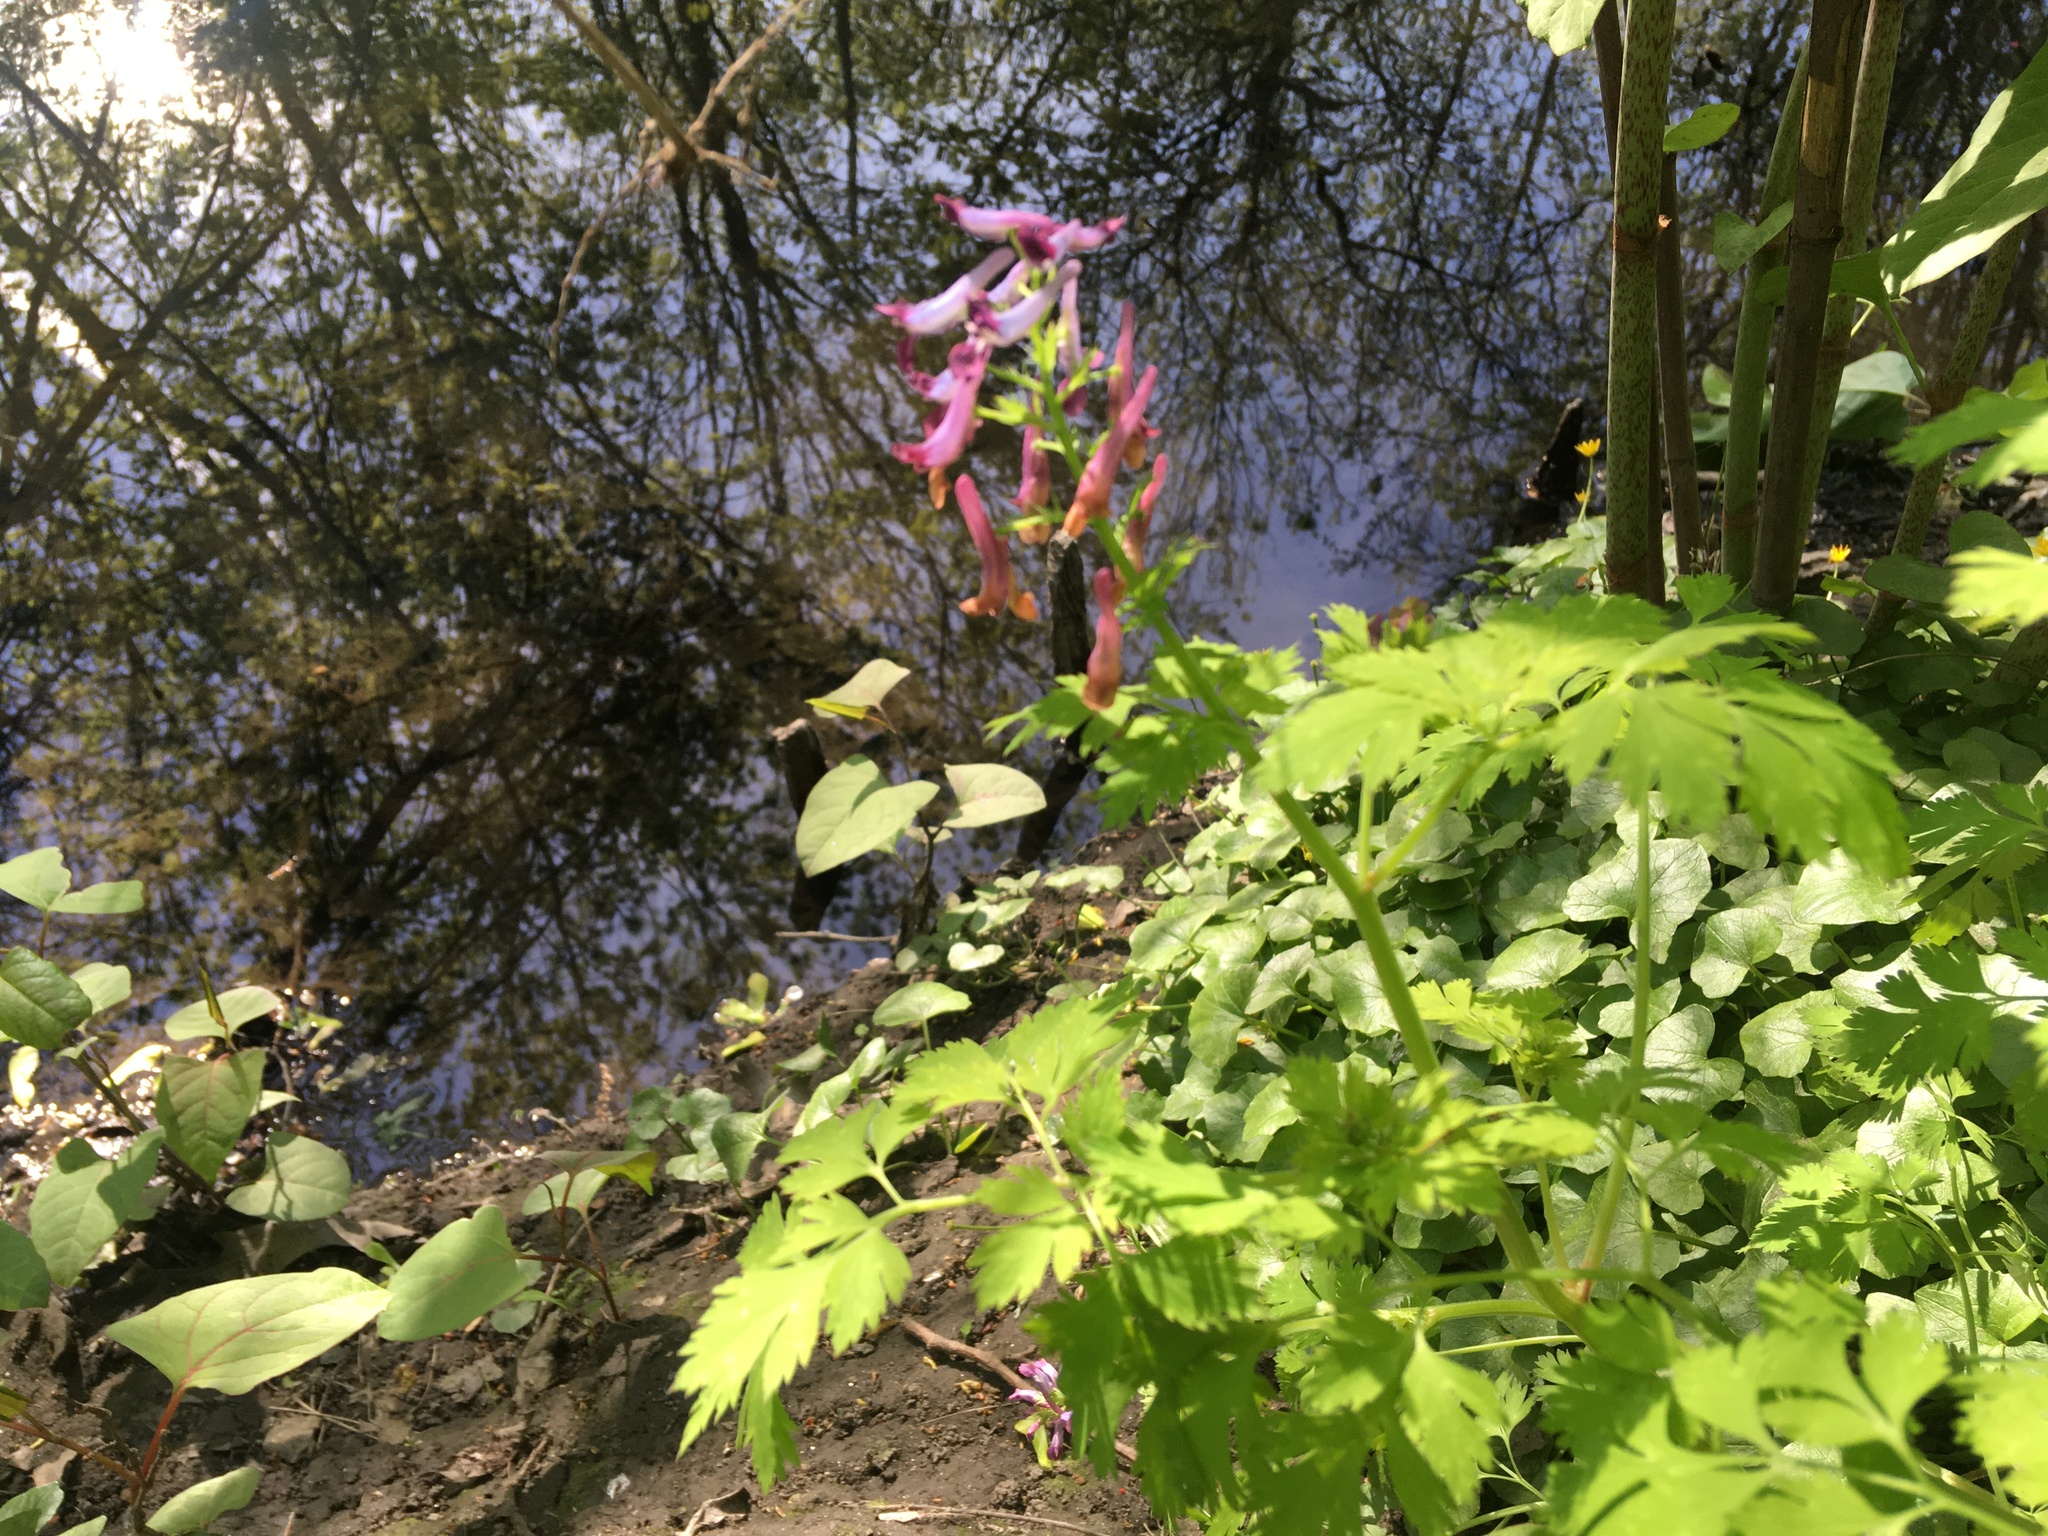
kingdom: Plantae
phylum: Tracheophyta
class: Magnoliopsida
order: Ranunculales
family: Papaveraceae
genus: Corydalis
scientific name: Corydalis incisa
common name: Incised fumewort
